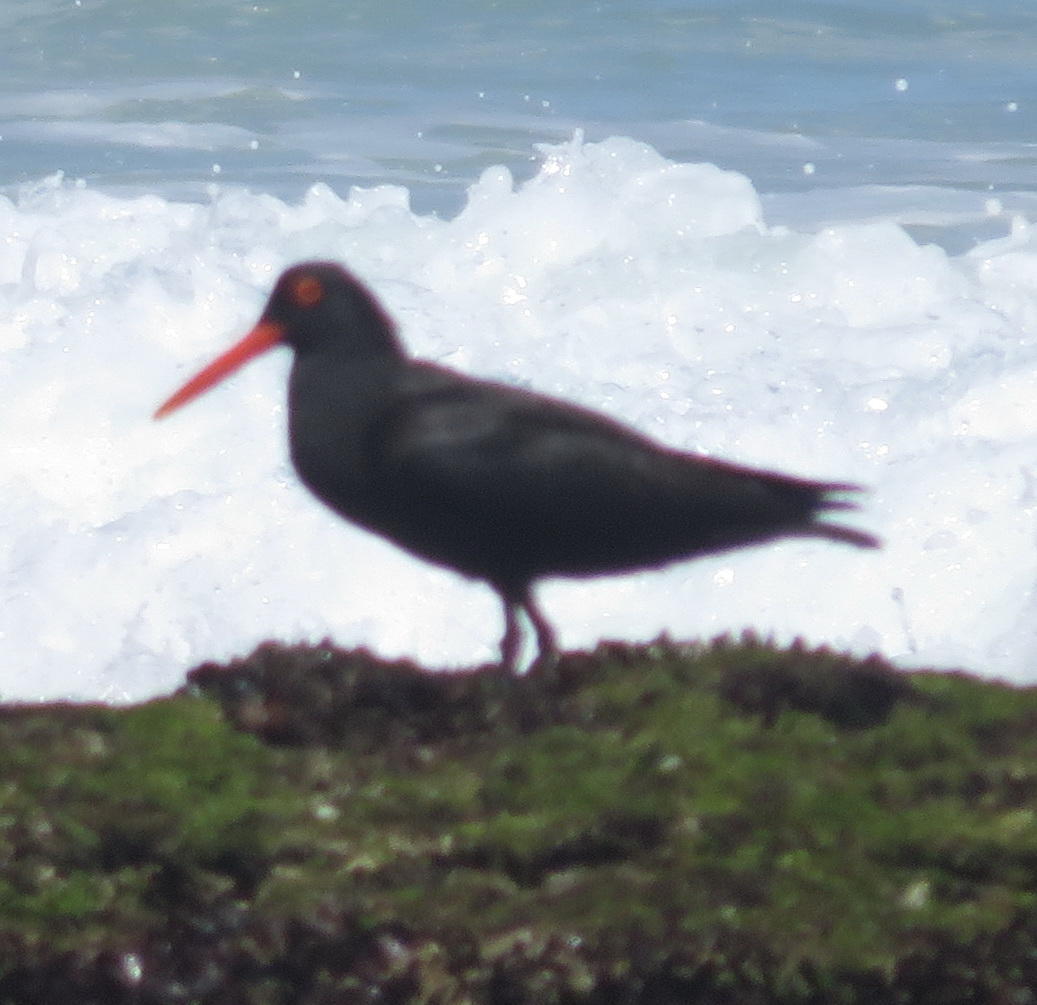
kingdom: Animalia
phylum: Chordata
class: Aves
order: Charadriiformes
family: Haematopodidae
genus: Haematopus
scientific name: Haematopus moquini
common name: African oystercatcher
